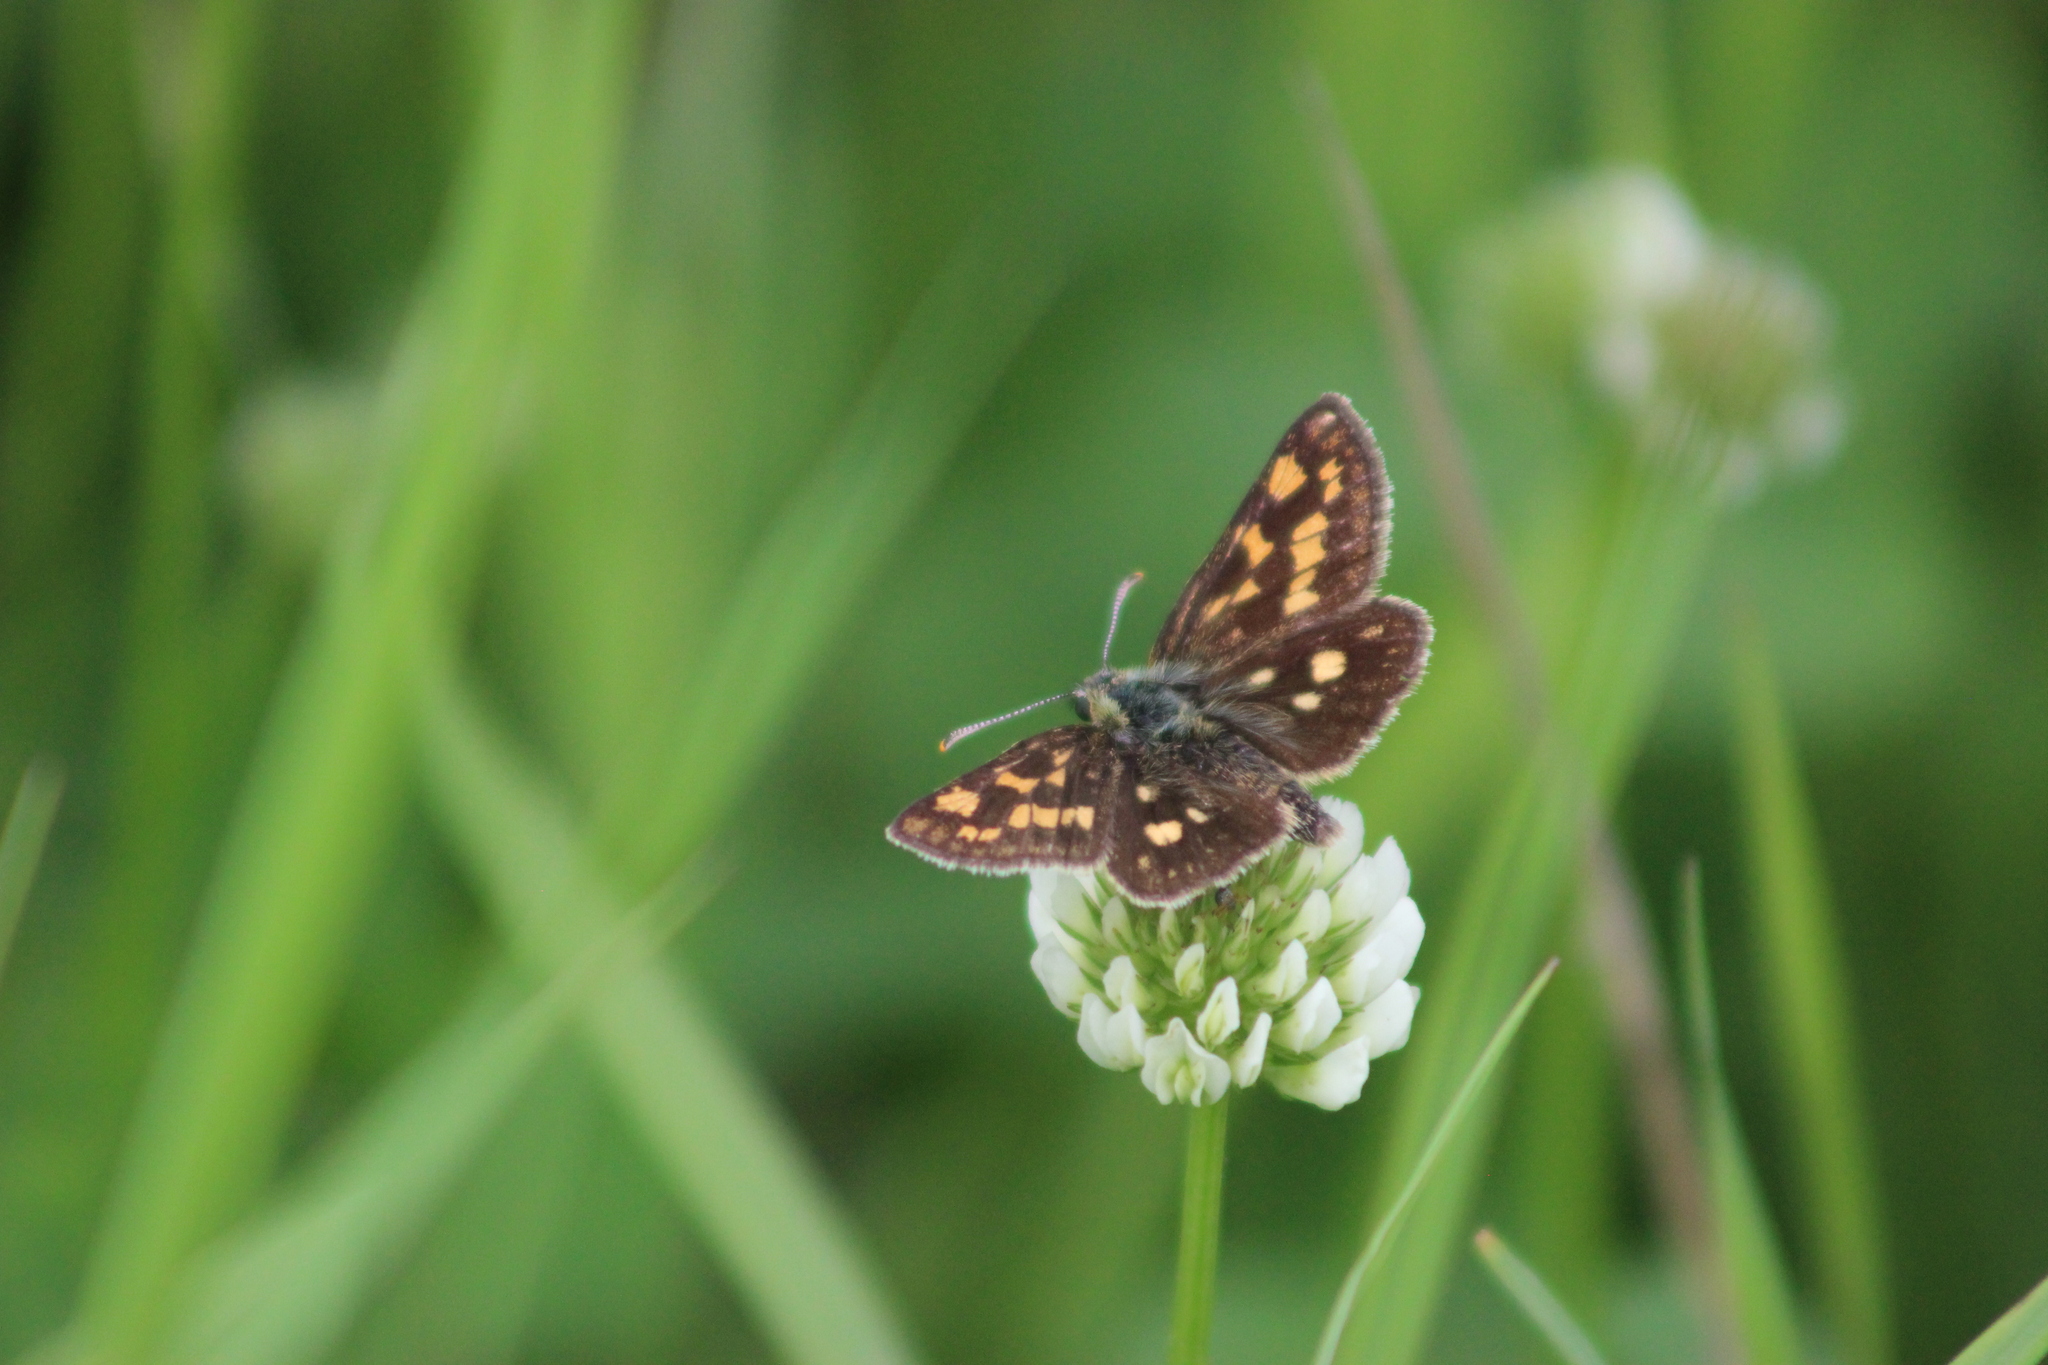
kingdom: Animalia
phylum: Arthropoda
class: Insecta
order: Lepidoptera
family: Hesperiidae
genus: Carterocephalus
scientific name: Carterocephalus palaemon
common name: Chequered skipper
